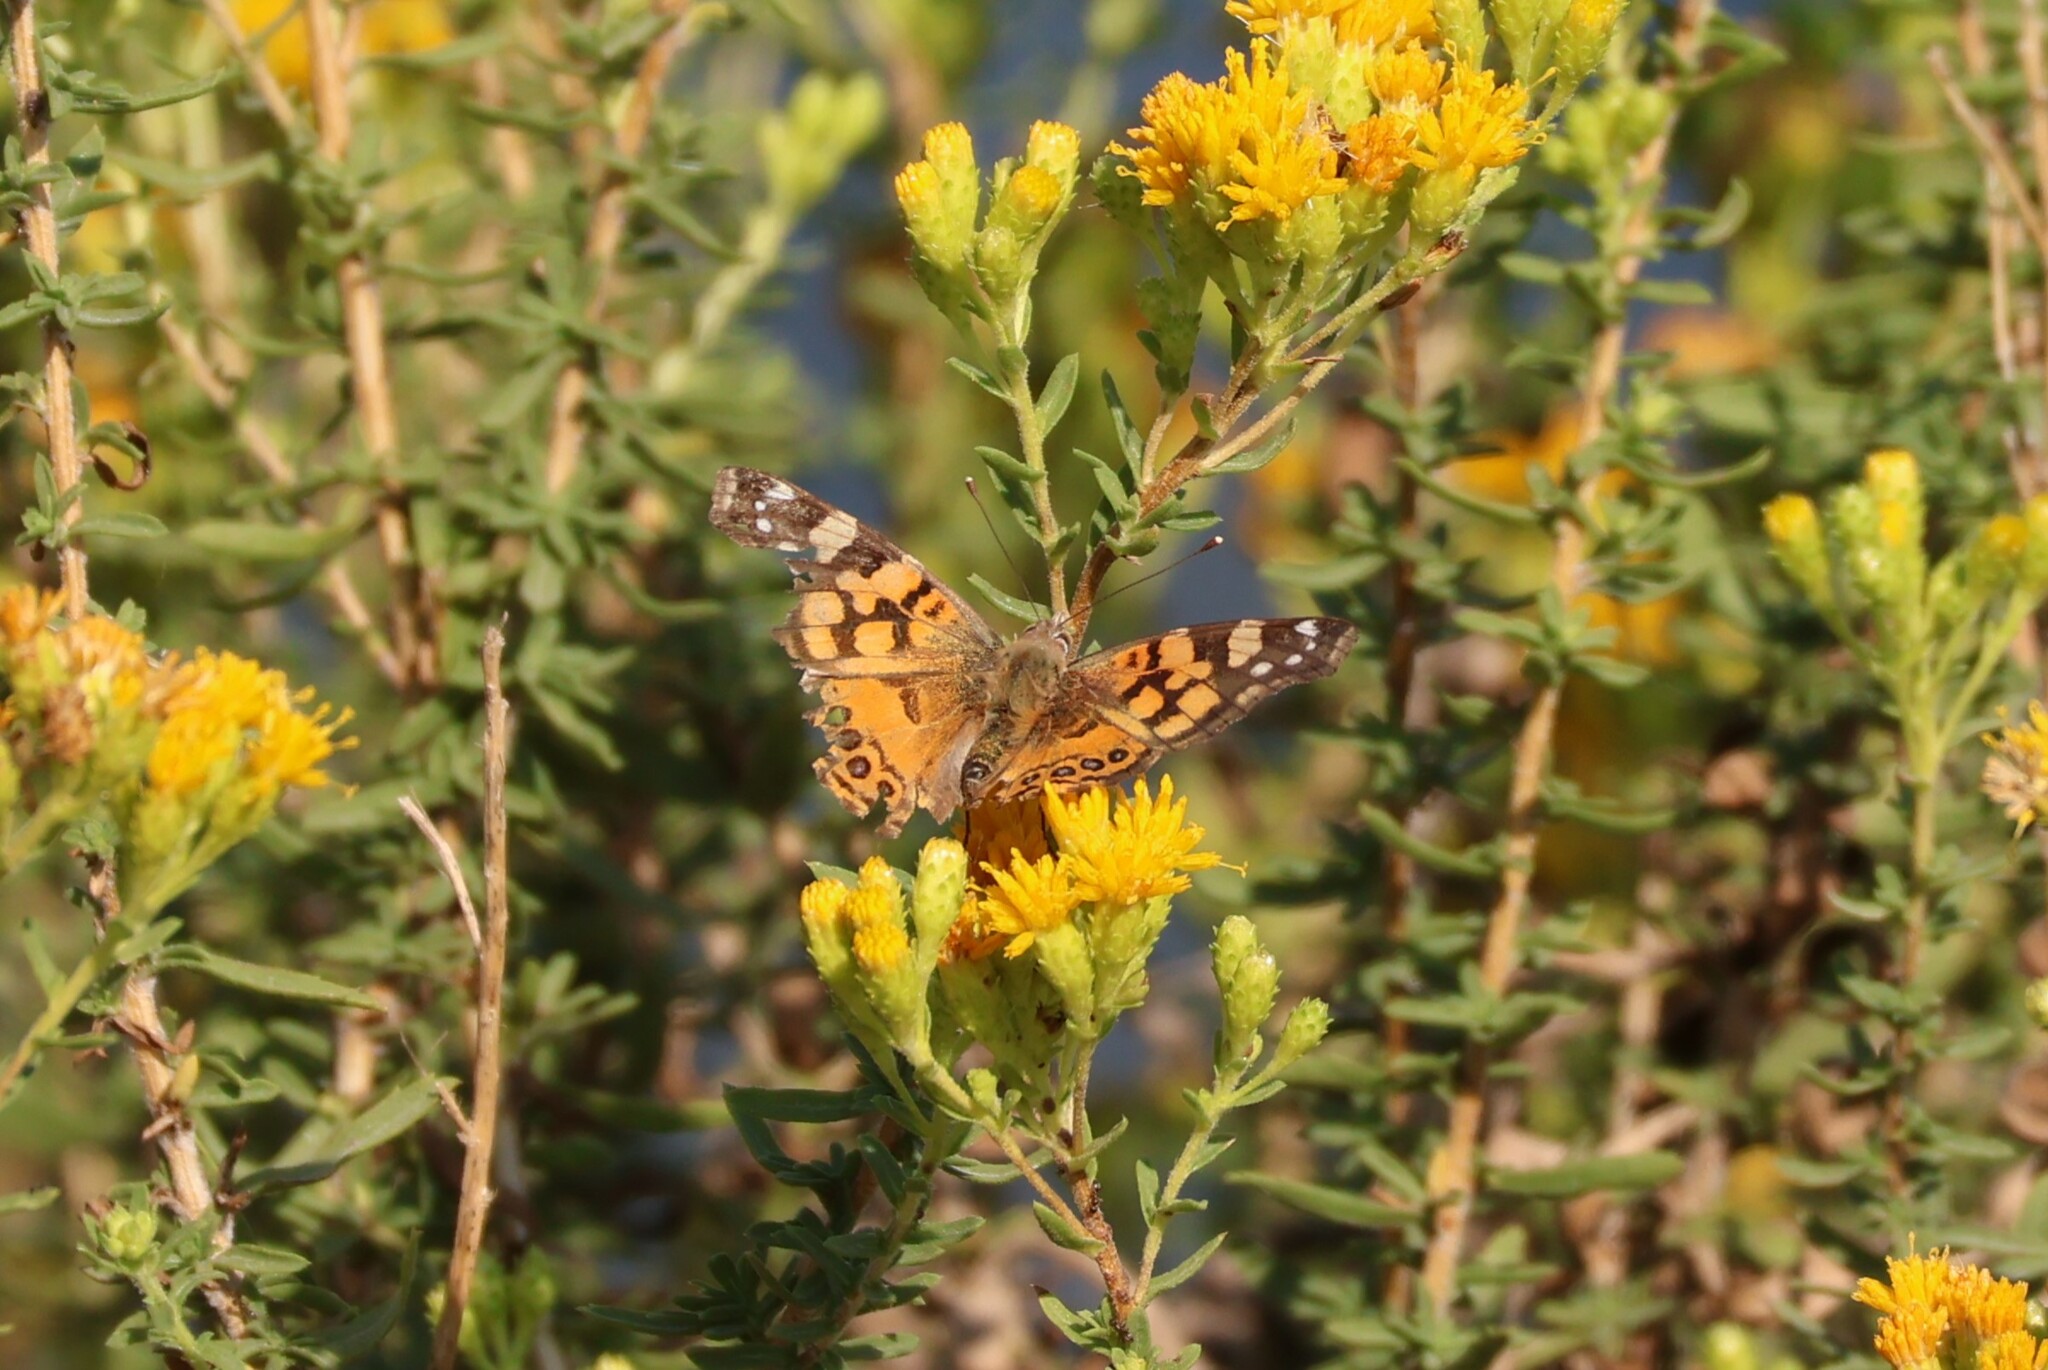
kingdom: Animalia
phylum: Arthropoda
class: Insecta
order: Lepidoptera
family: Nymphalidae
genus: Vanessa
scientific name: Vanessa annabella
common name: West coast lady
